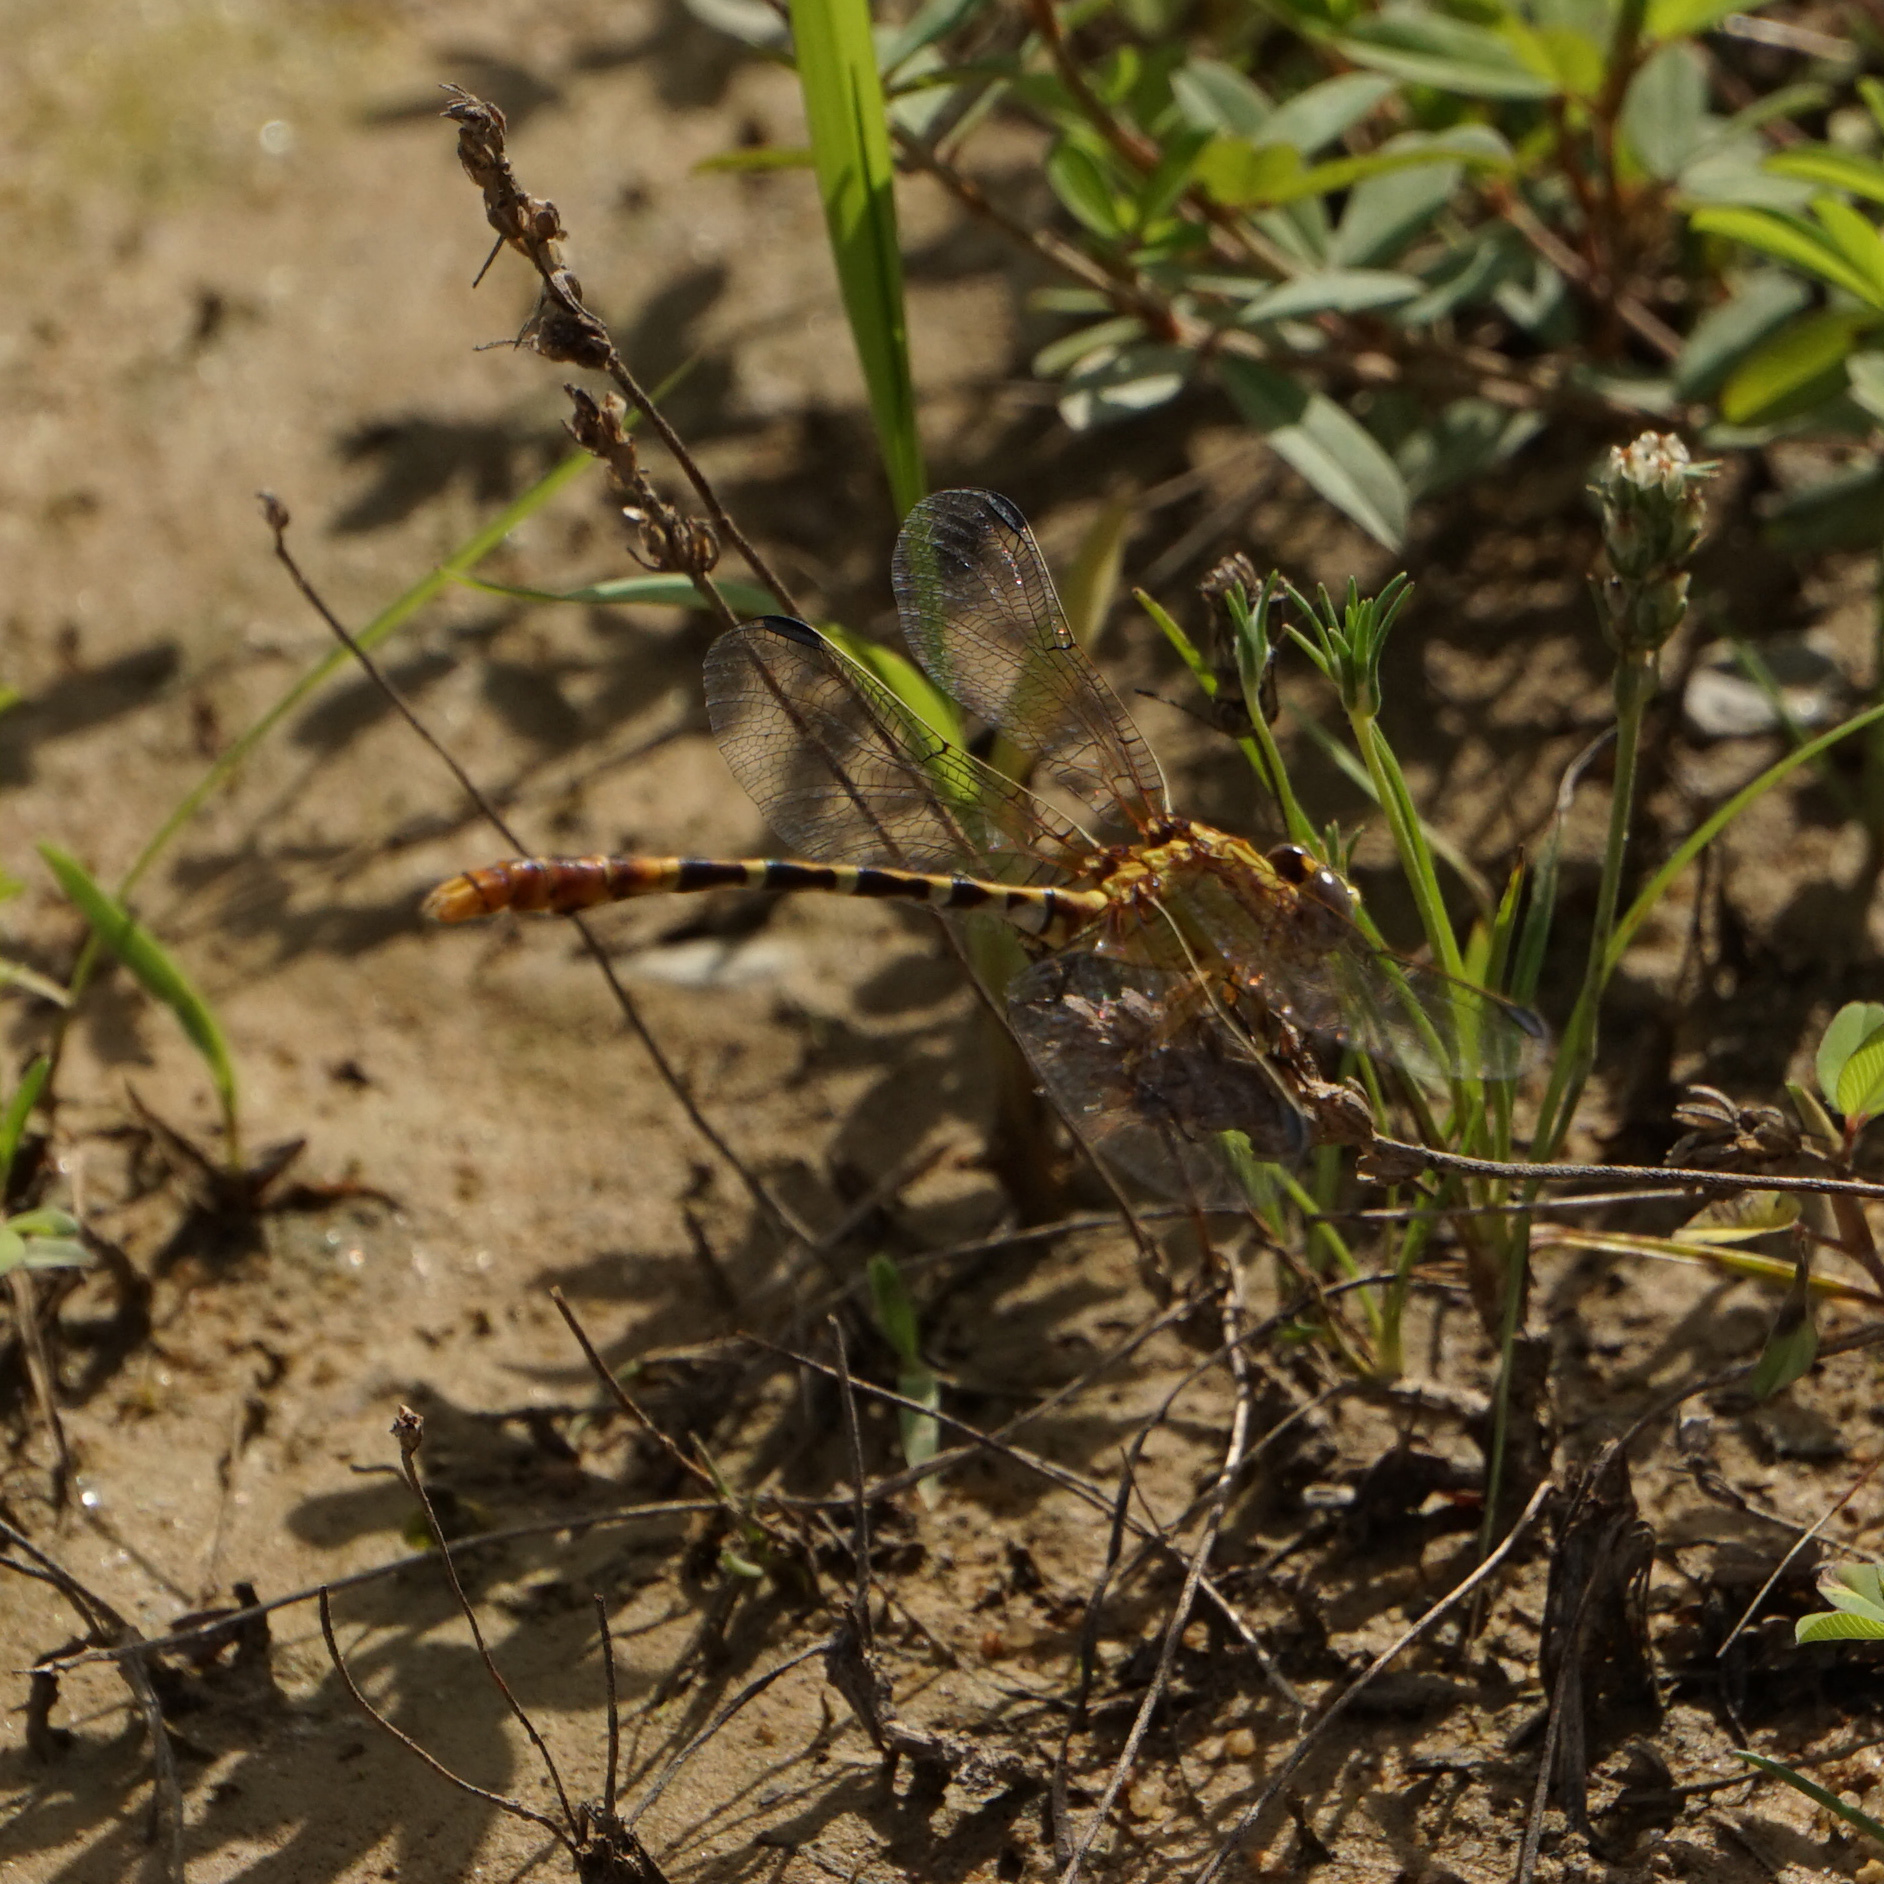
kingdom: Animalia
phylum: Arthropoda
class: Insecta
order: Odonata
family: Gomphidae
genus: Erpetogomphus
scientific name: Erpetogomphus designatus
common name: Eastern ringtail
